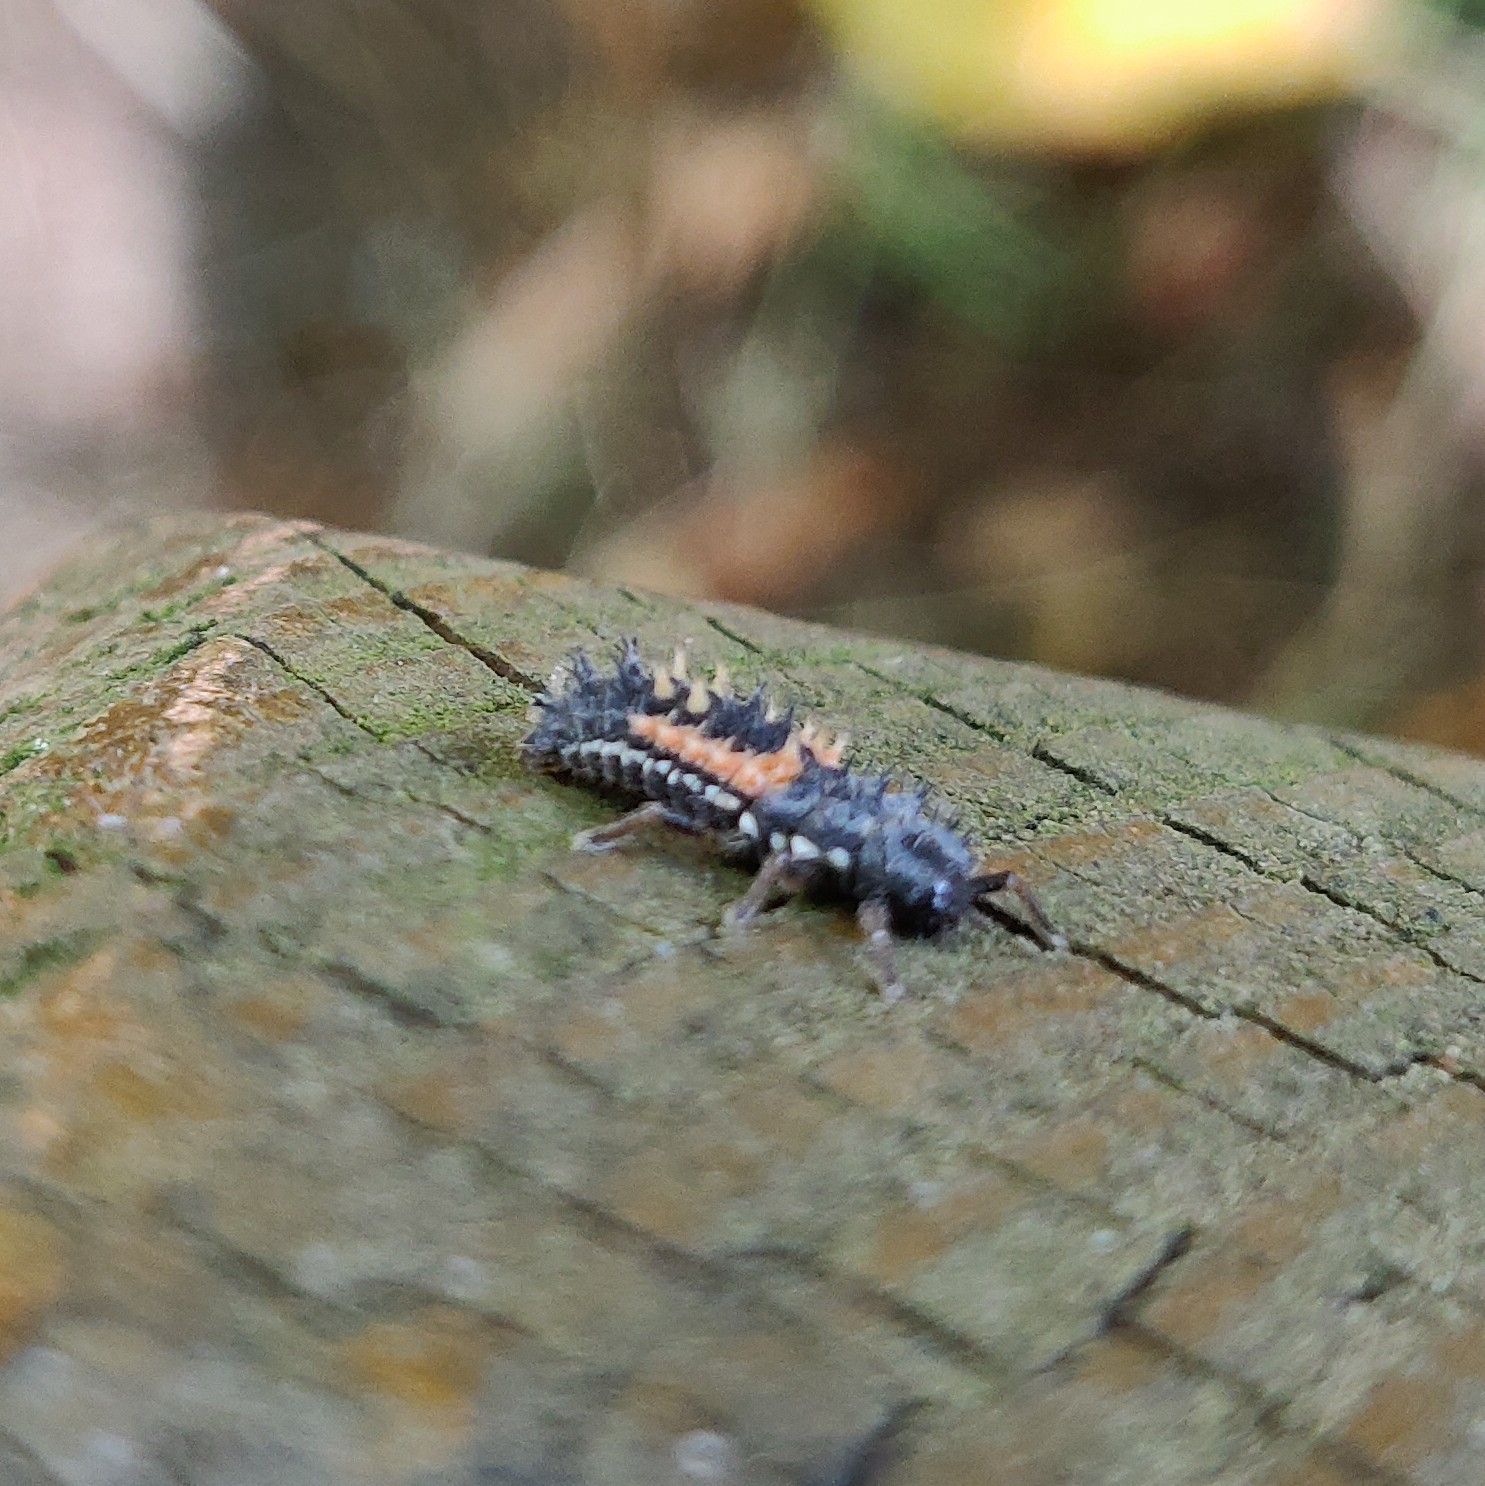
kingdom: Animalia
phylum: Arthropoda
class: Insecta
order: Coleoptera
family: Coccinellidae
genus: Harmonia
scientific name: Harmonia axyridis
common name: Harlequin ladybird
